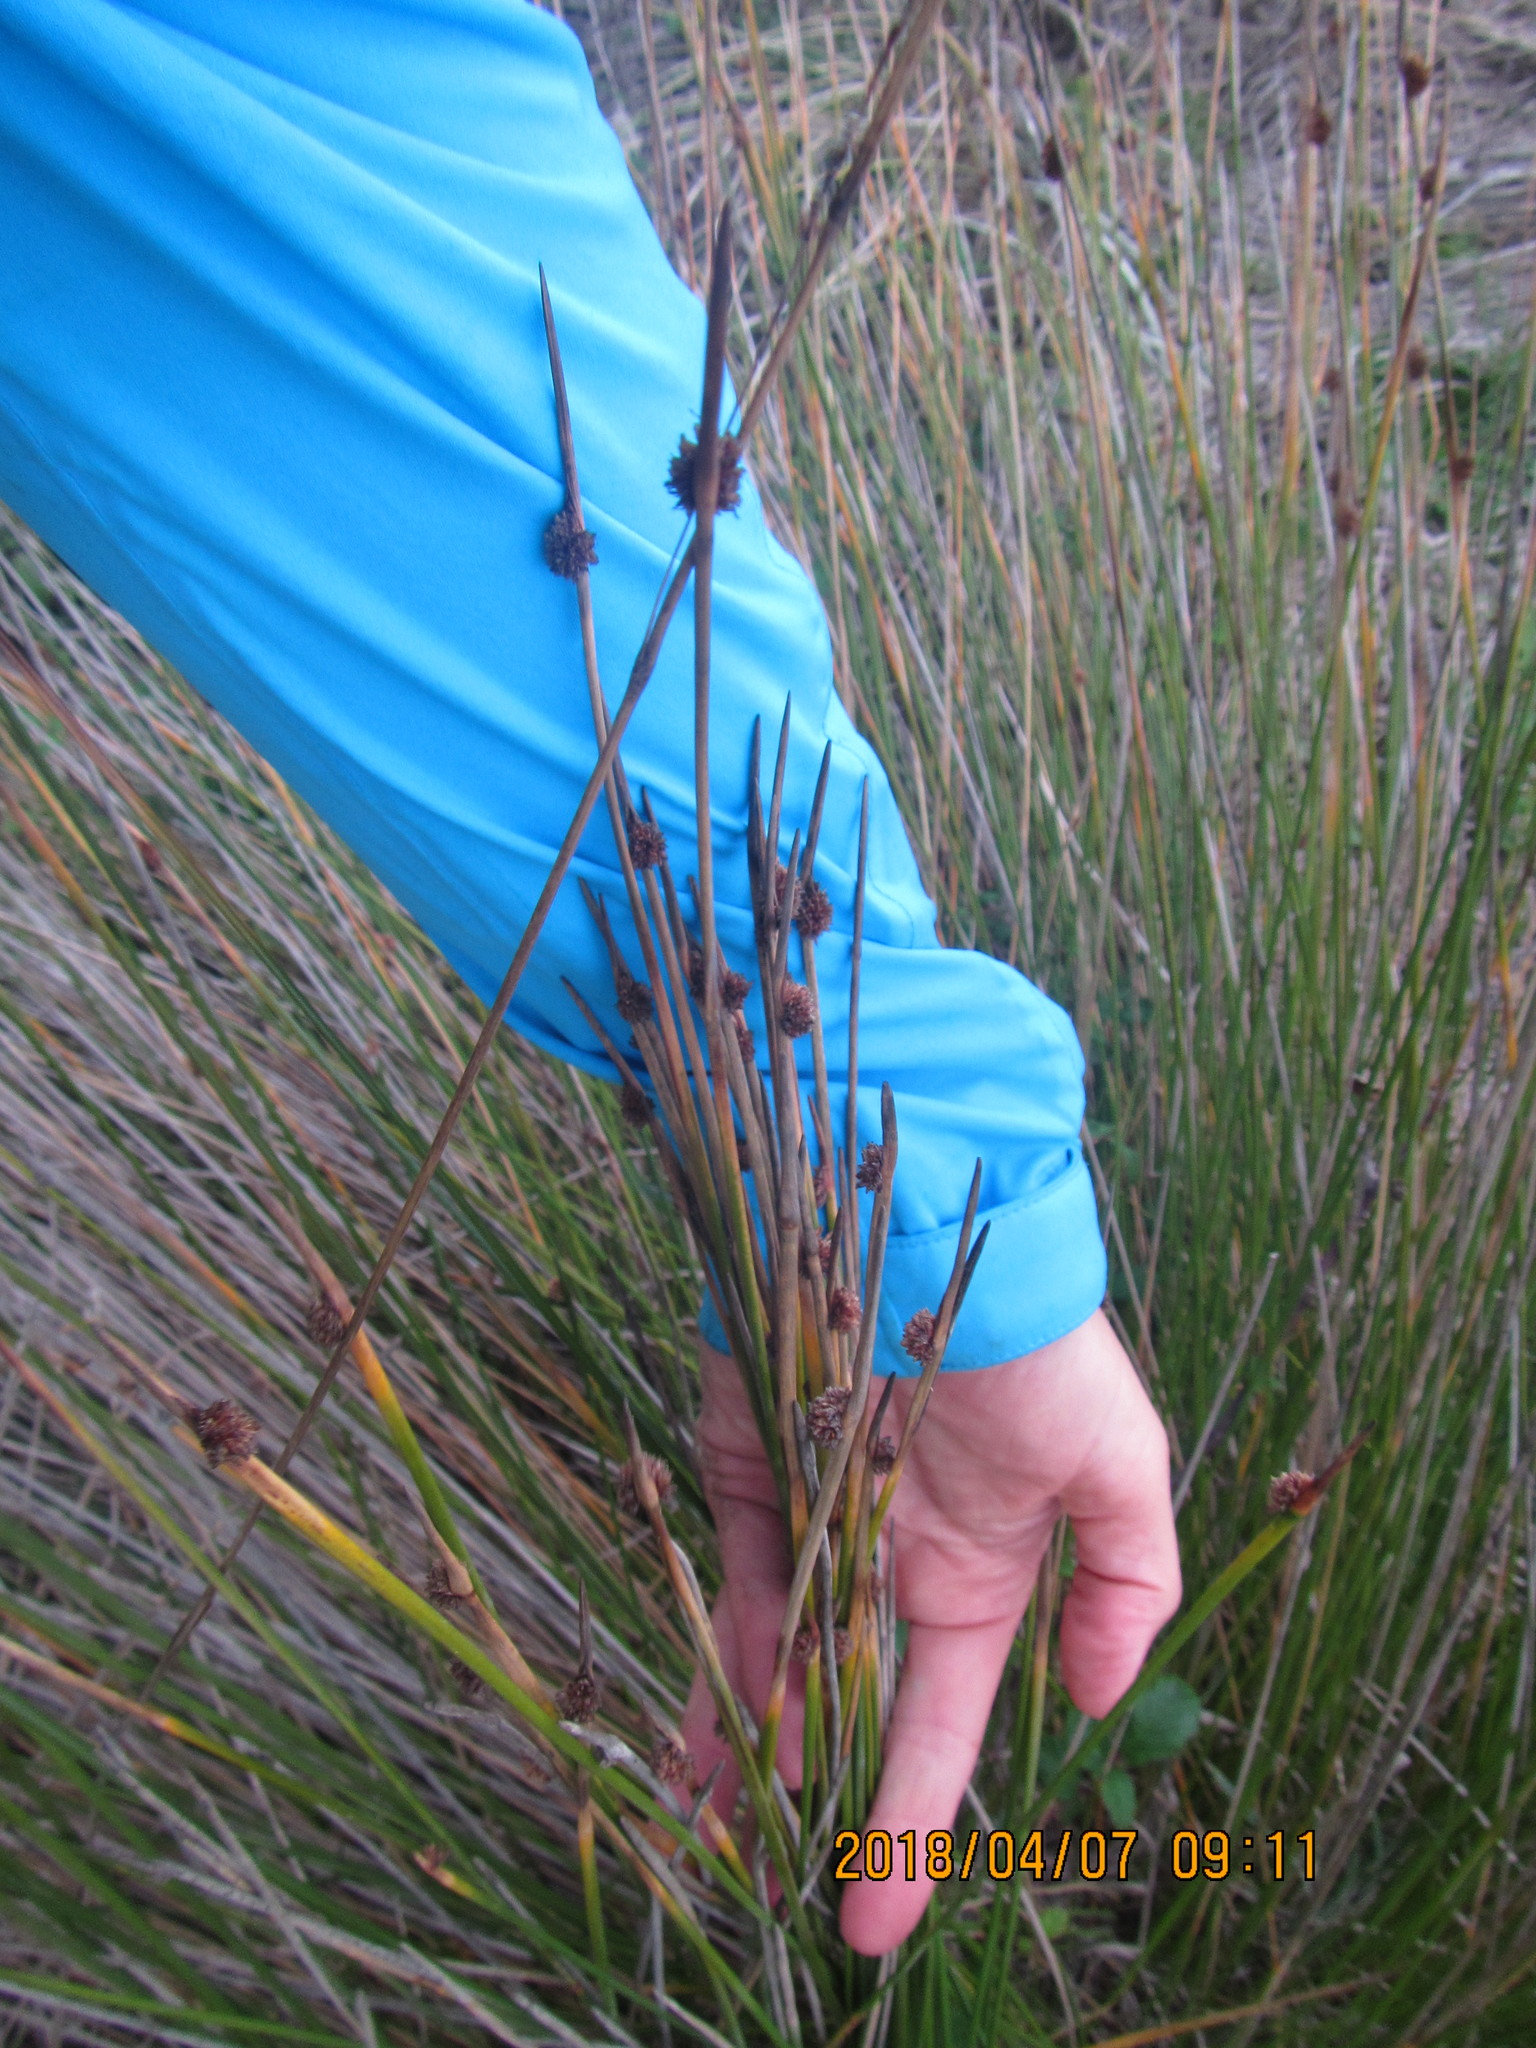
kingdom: Plantae
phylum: Tracheophyta
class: Liliopsida
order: Poales
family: Cyperaceae
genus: Ficinia
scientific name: Ficinia nodosa
